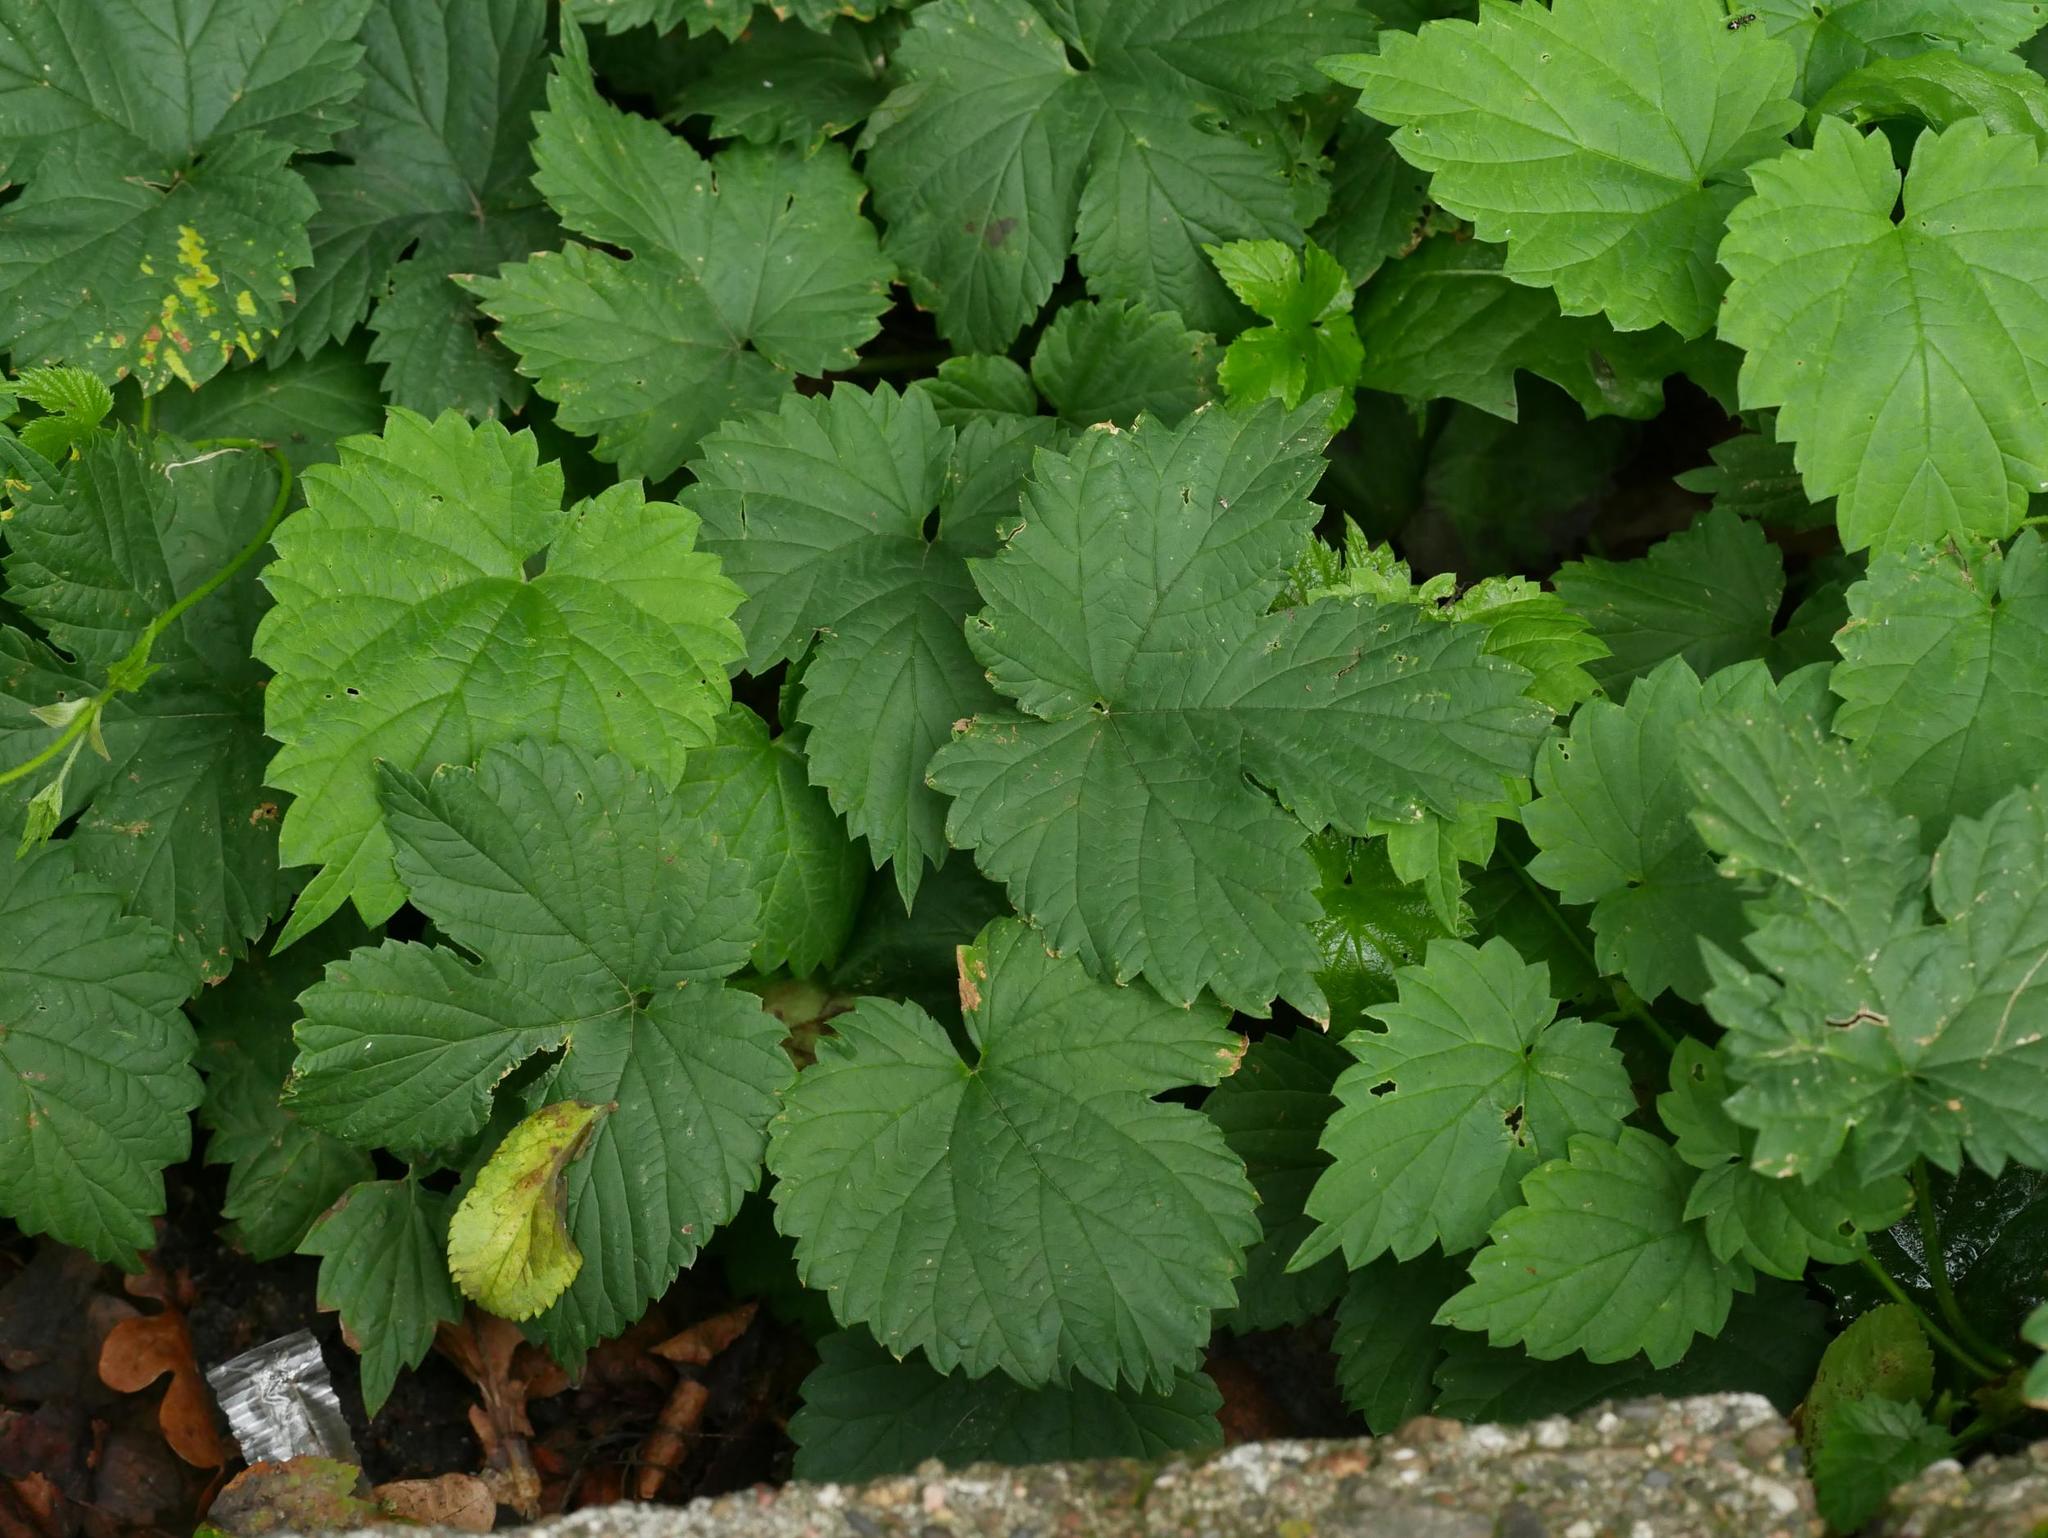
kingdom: Plantae
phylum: Tracheophyta
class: Magnoliopsida
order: Rosales
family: Cannabaceae
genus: Humulus
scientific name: Humulus lupulus
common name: Hop
